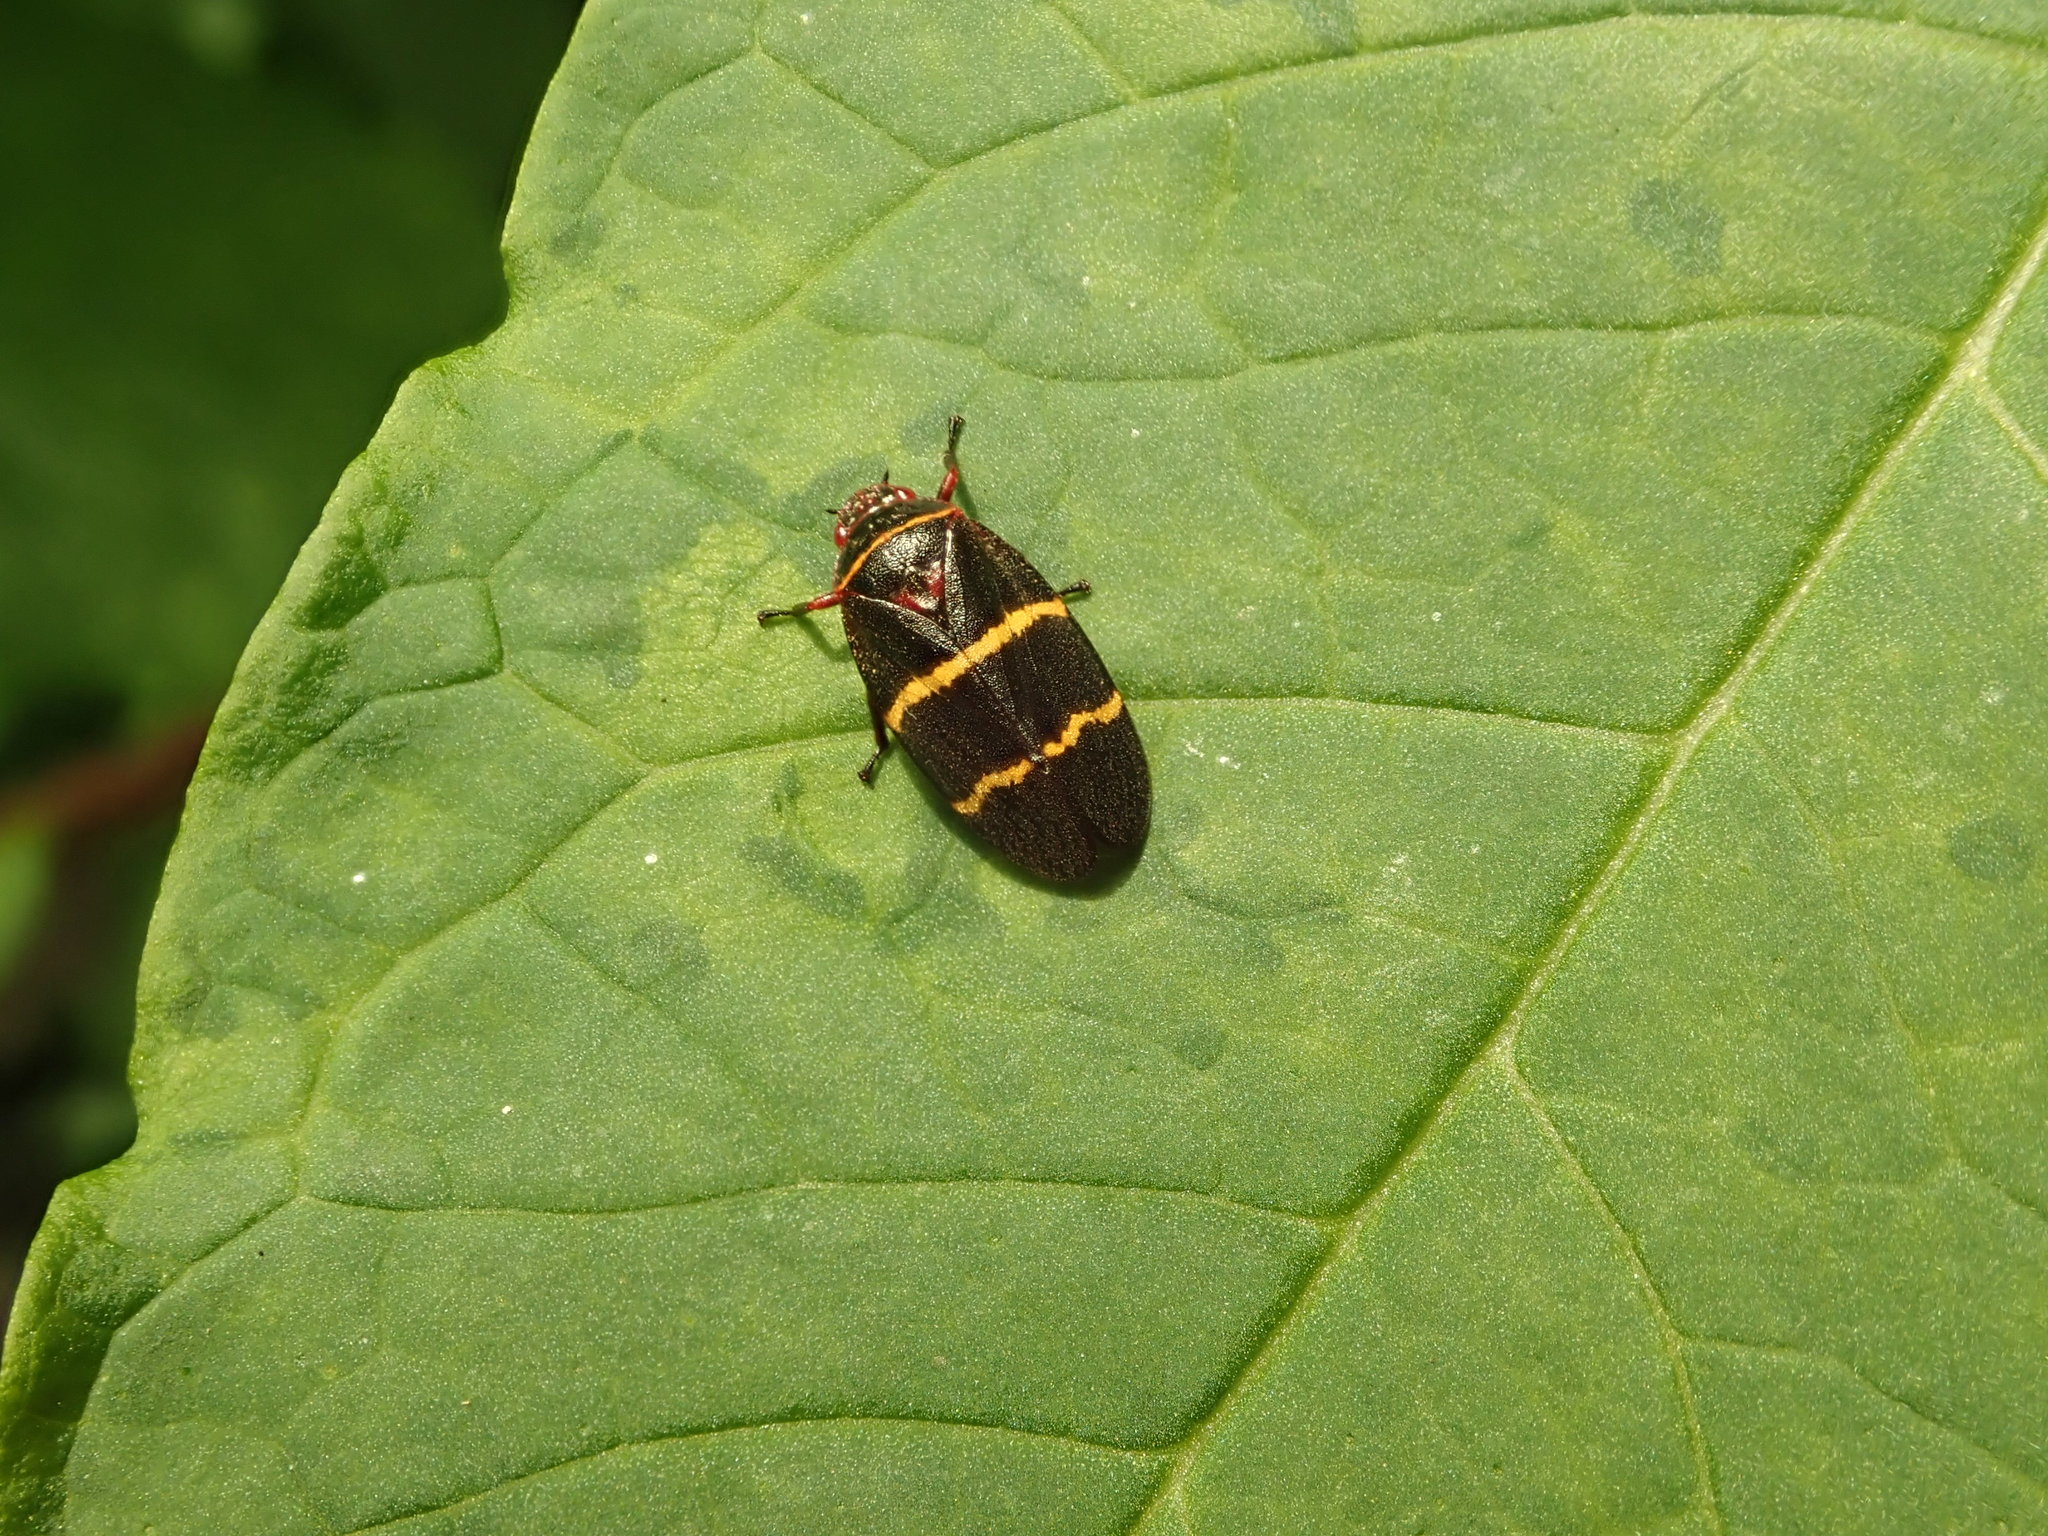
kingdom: Animalia
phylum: Arthropoda
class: Insecta
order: Hemiptera
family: Cercopidae
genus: Prosapia
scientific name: Prosapia bicincta
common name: Twolined spittlebug
